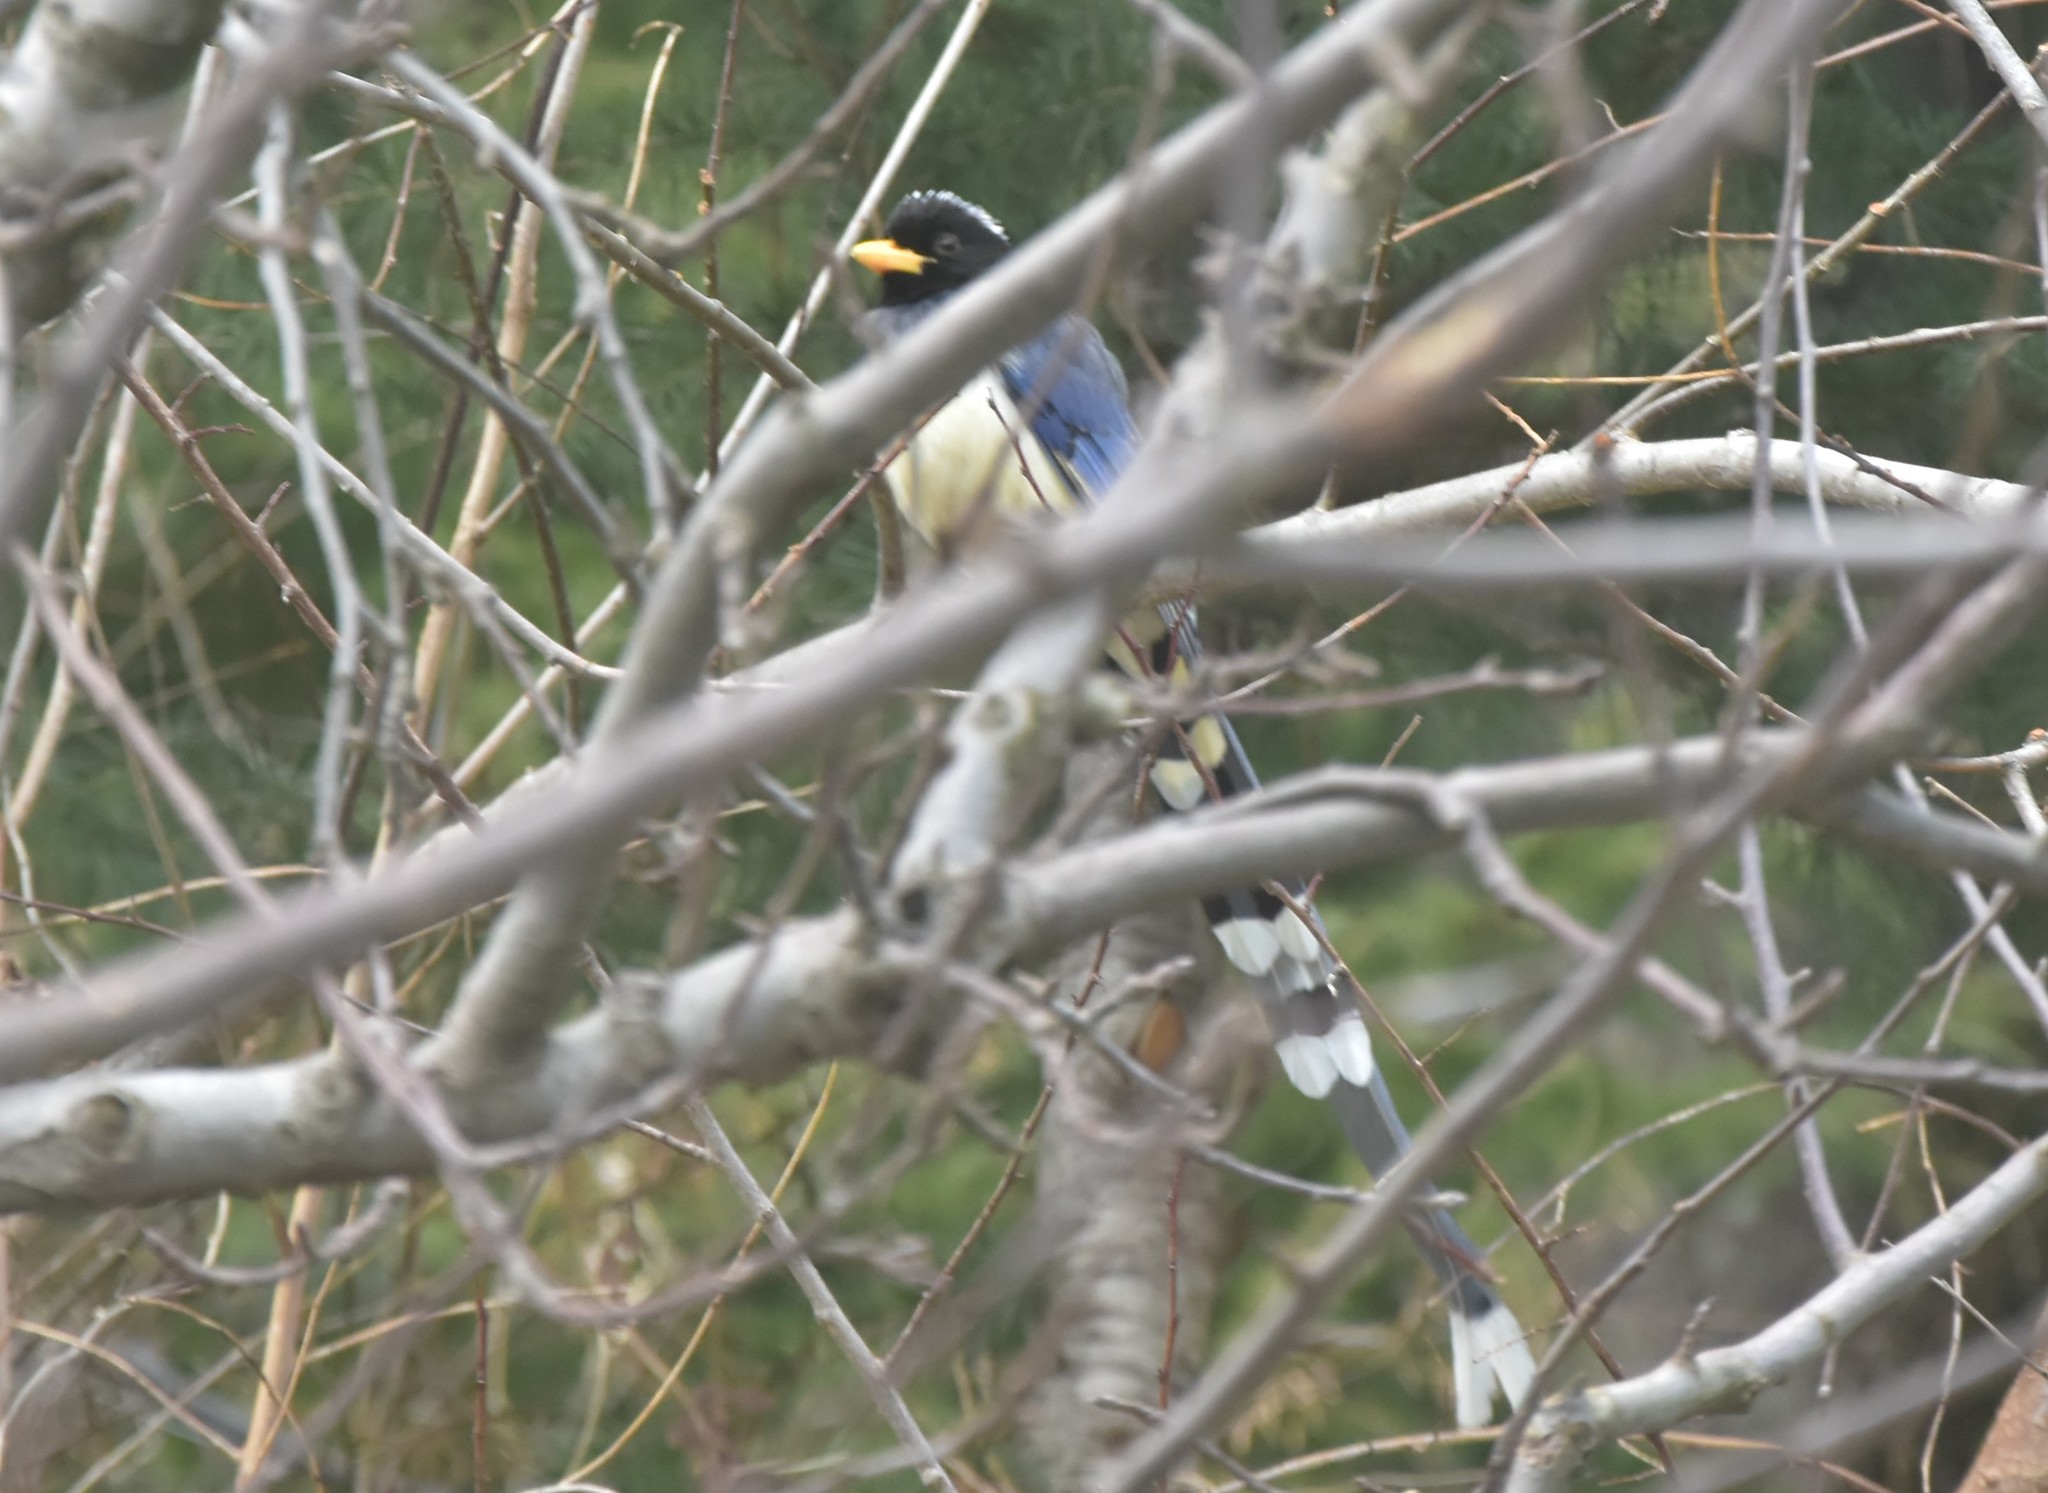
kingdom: Animalia
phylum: Chordata
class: Aves
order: Passeriformes
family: Corvidae
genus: Urocissa
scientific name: Urocissa flavirostris
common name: Yellow-billed blue magpie
